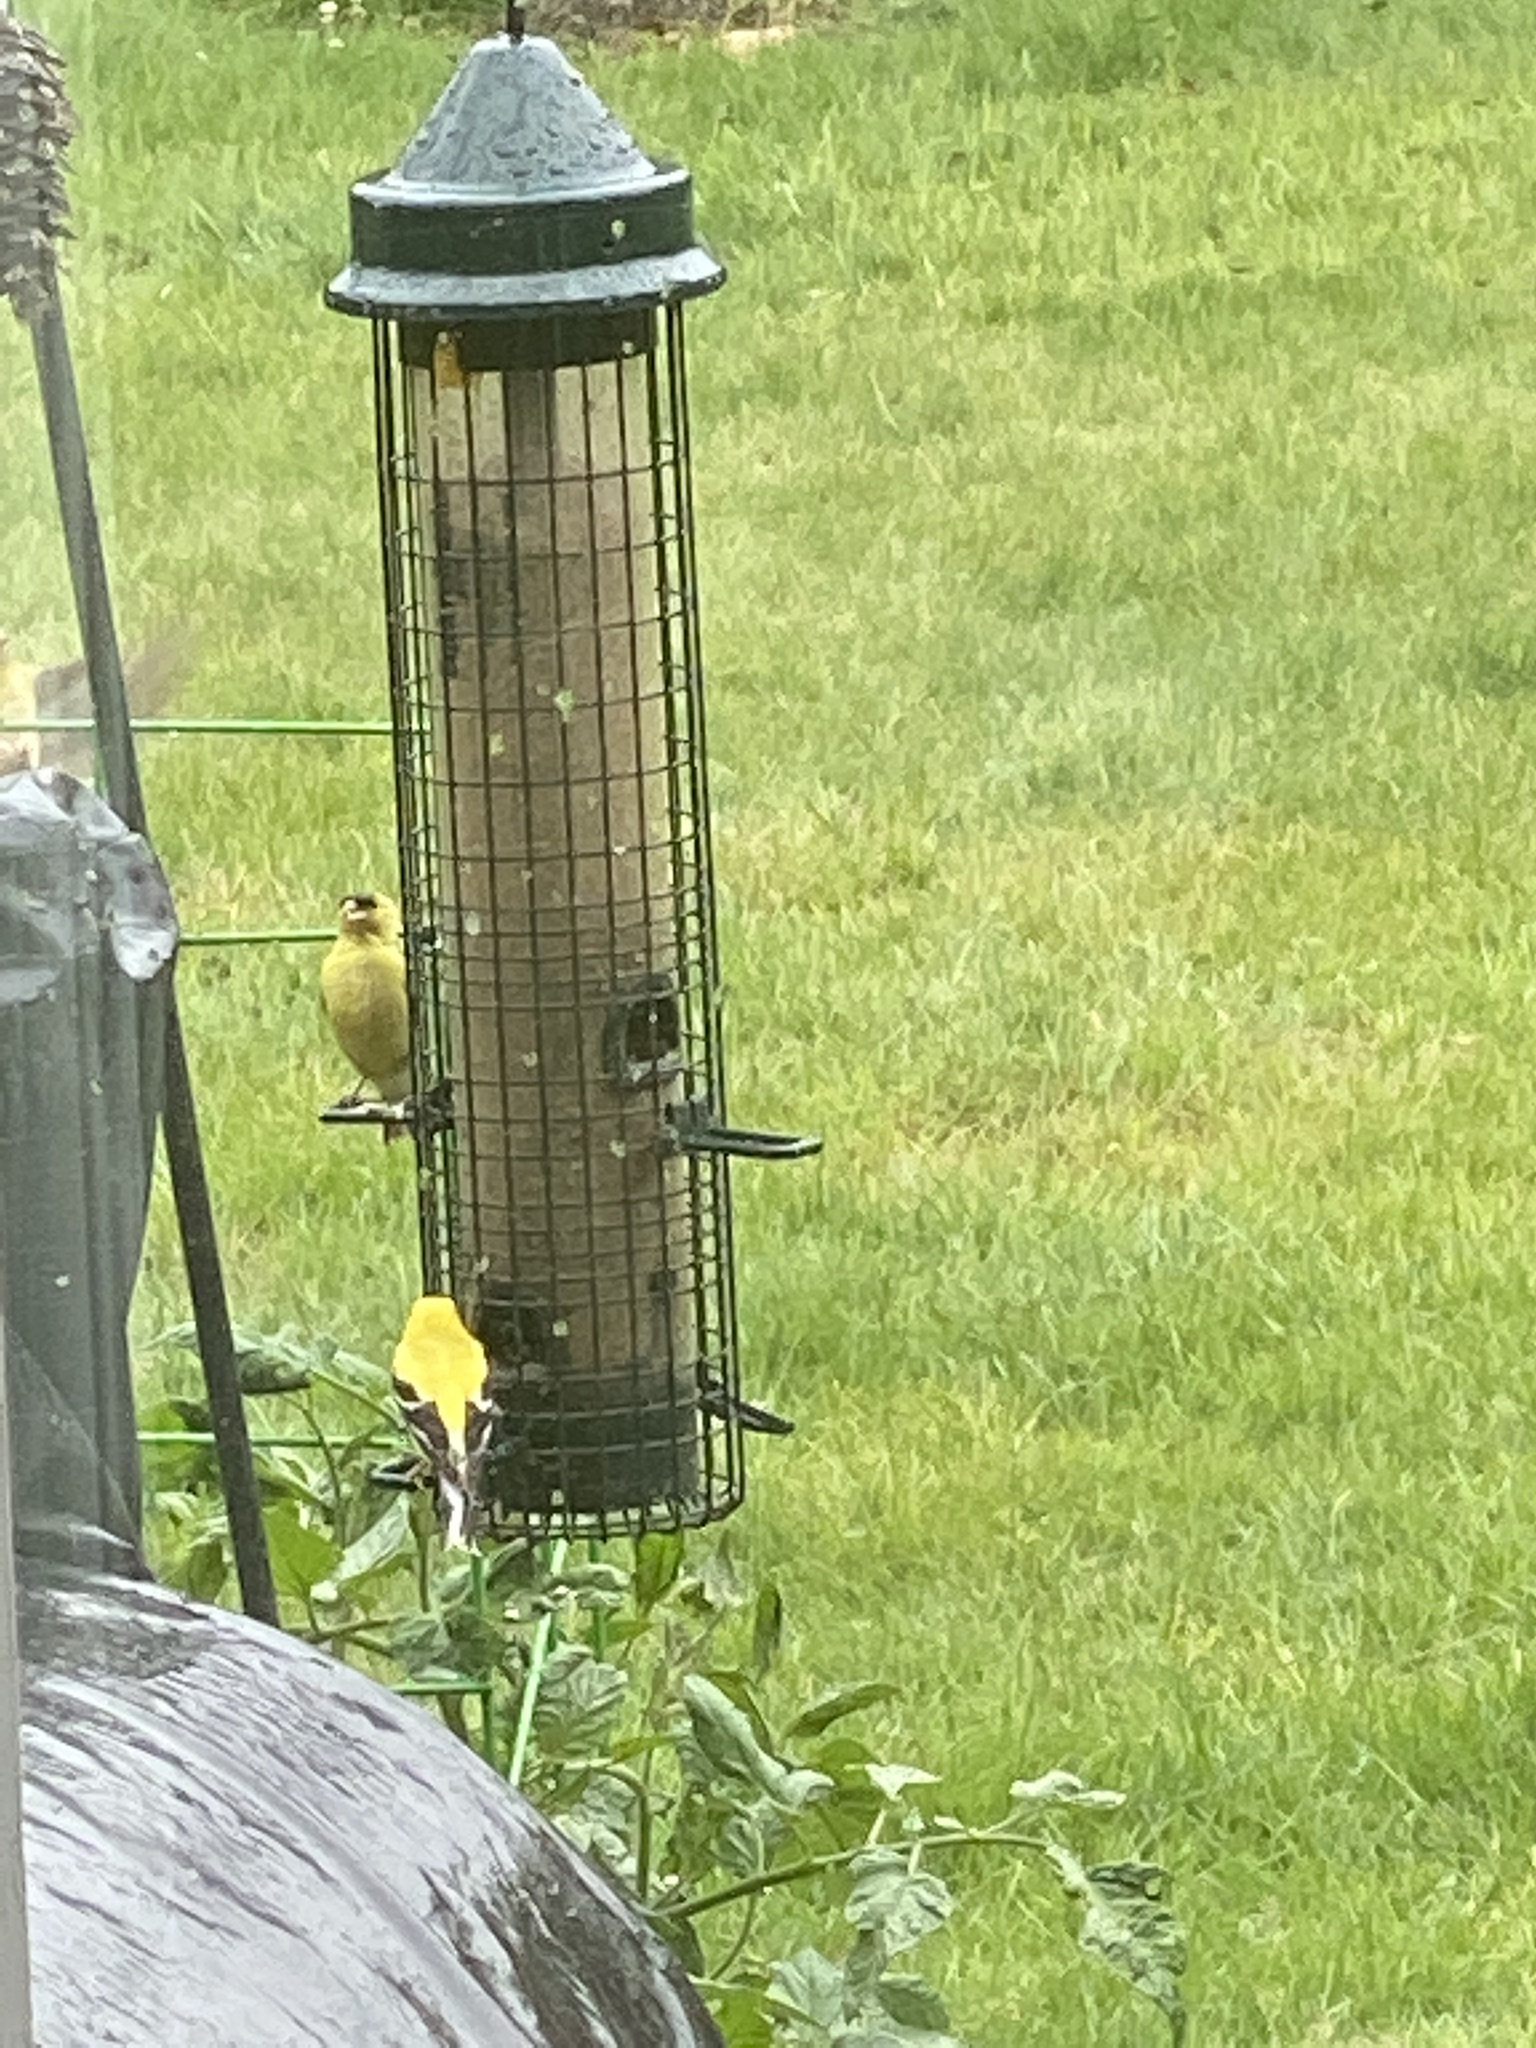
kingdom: Animalia
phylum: Chordata
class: Aves
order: Passeriformes
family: Fringillidae
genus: Spinus
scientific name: Spinus tristis
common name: American goldfinch
